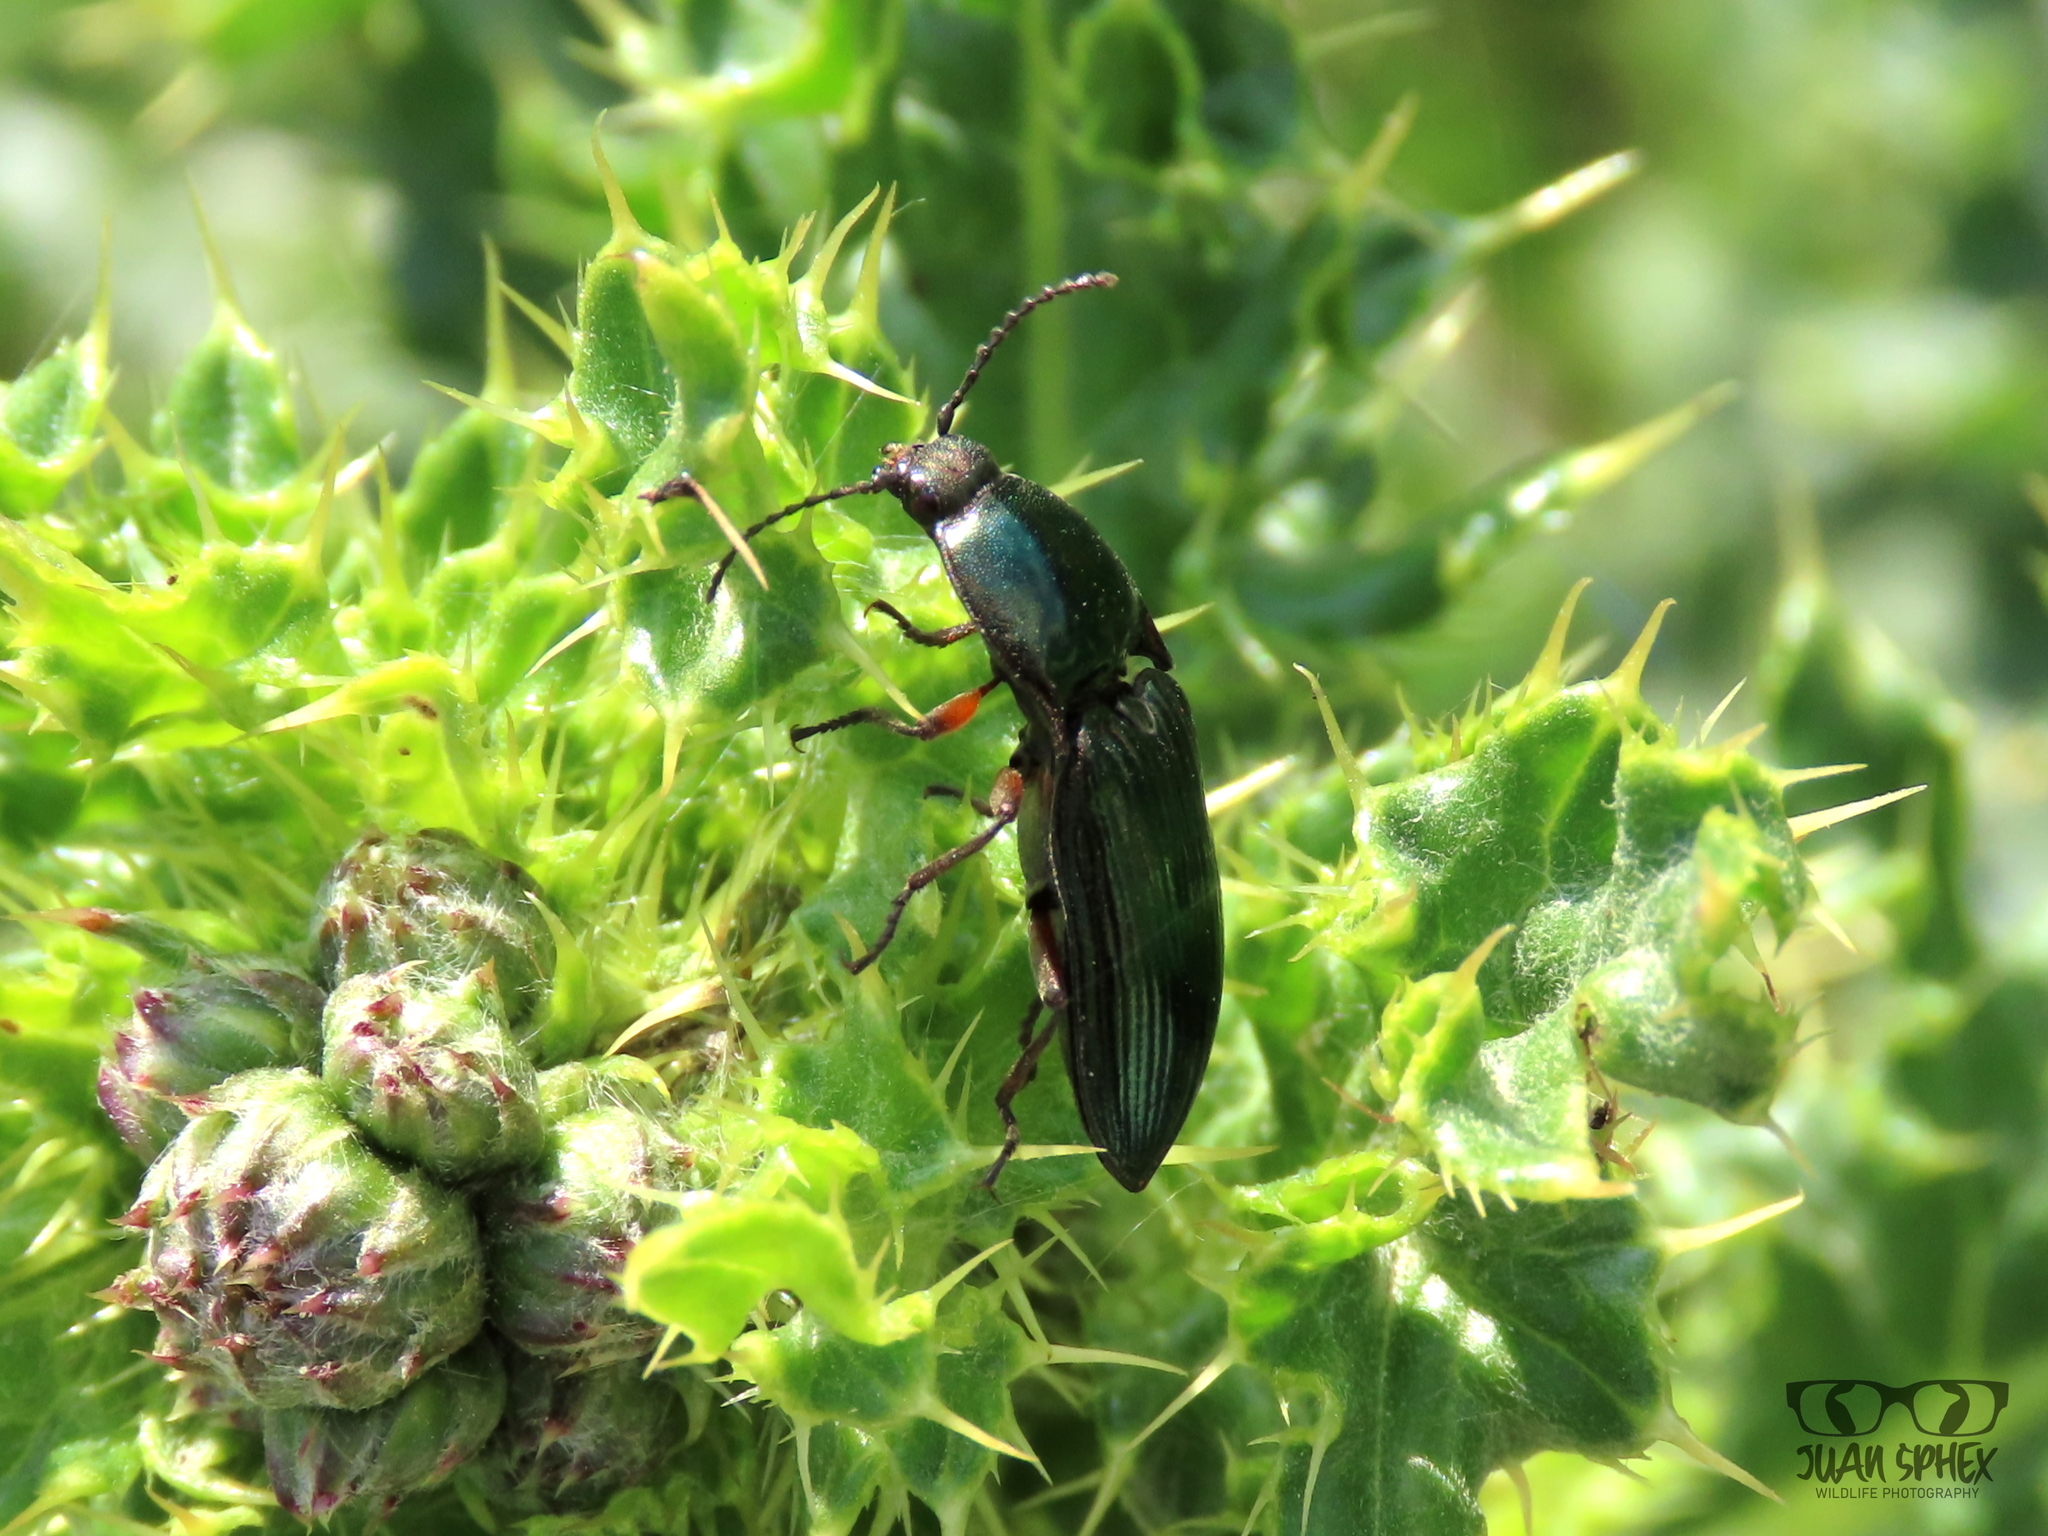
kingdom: Animalia
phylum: Arthropoda
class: Insecta
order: Coleoptera
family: Elateridae
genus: Selatosomus
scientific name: Selatosomus aeneus
